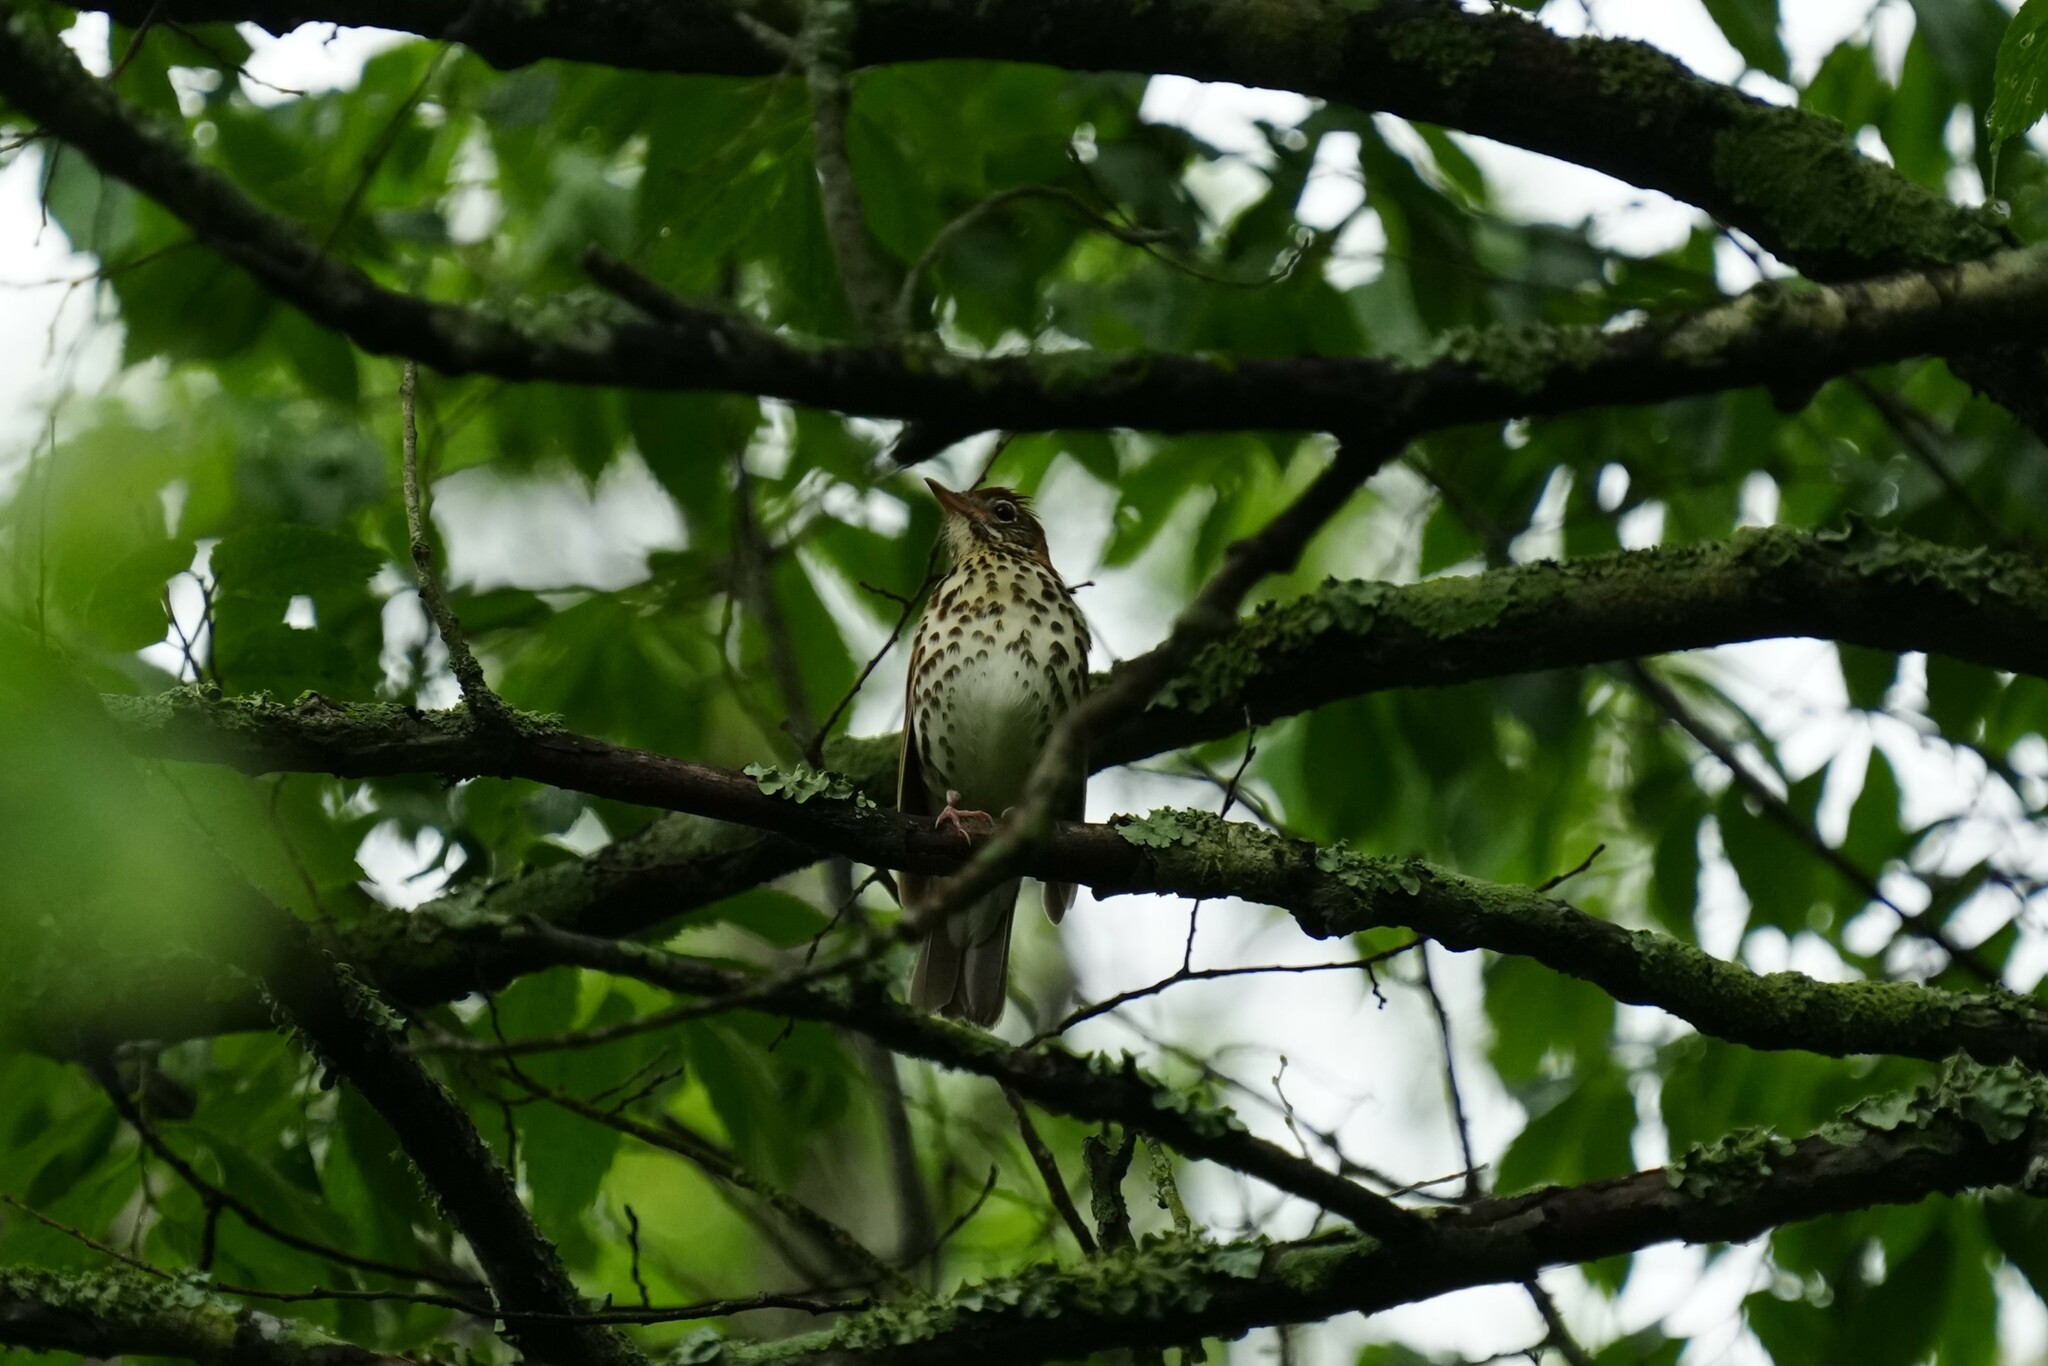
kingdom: Animalia
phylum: Chordata
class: Aves
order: Passeriformes
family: Turdidae
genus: Hylocichla
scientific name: Hylocichla mustelina
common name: Wood thrush
